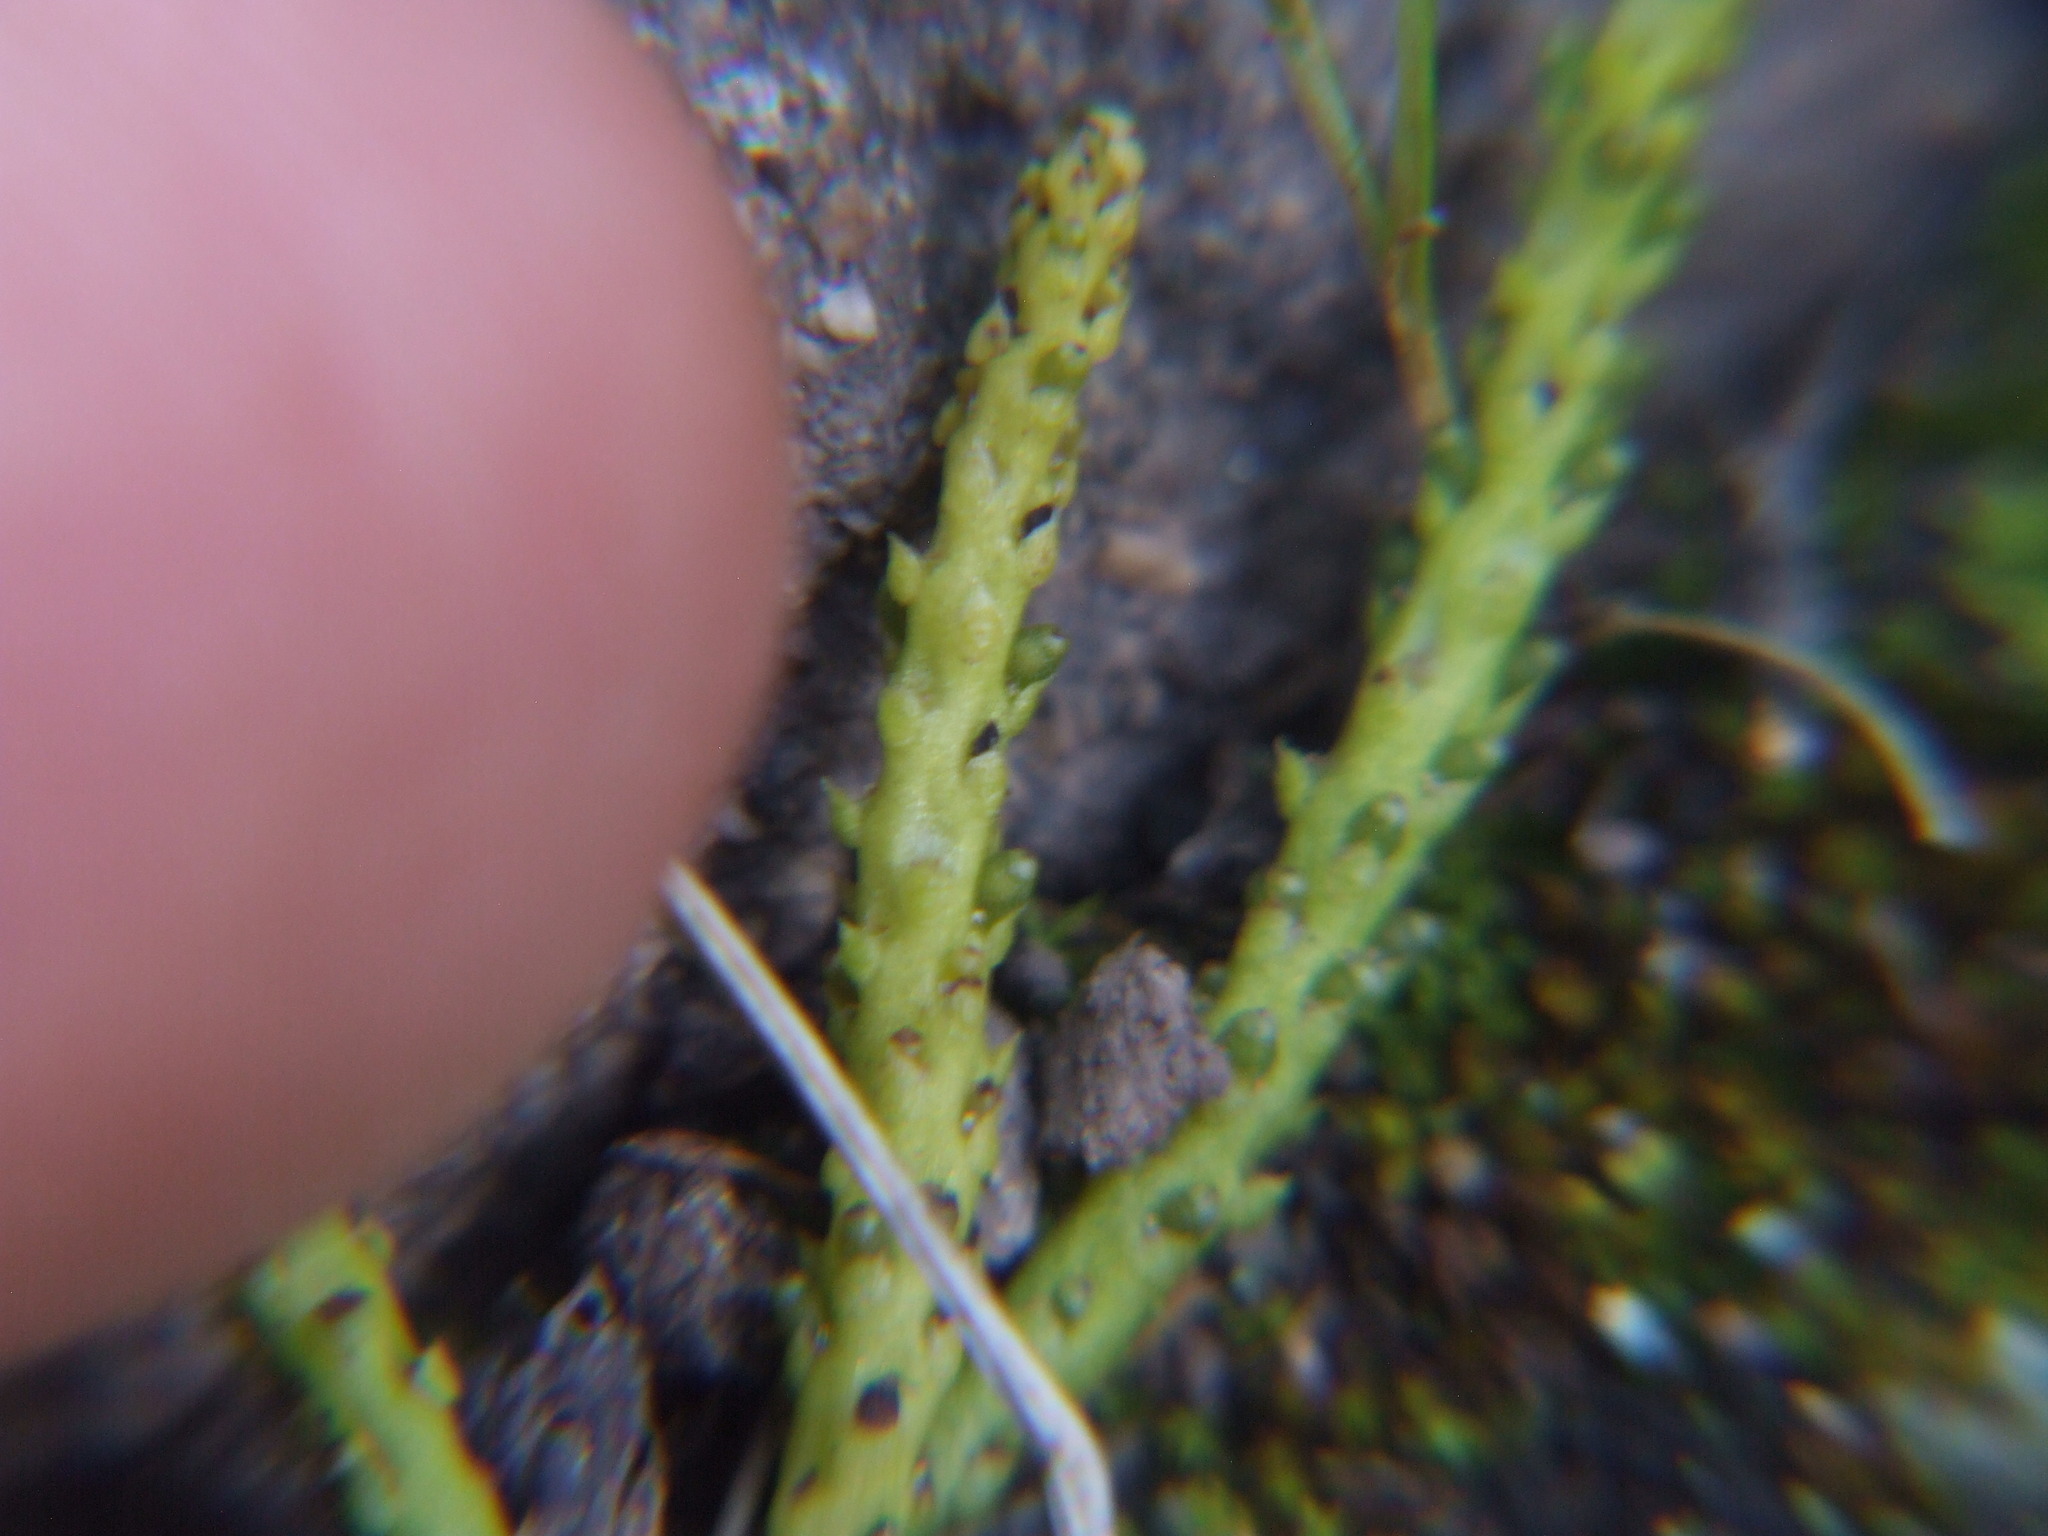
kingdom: Plantae
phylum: Tracheophyta
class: Magnoliopsida
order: Piperales
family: Piperaceae
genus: Peperomia
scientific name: Peperomia polycephala
